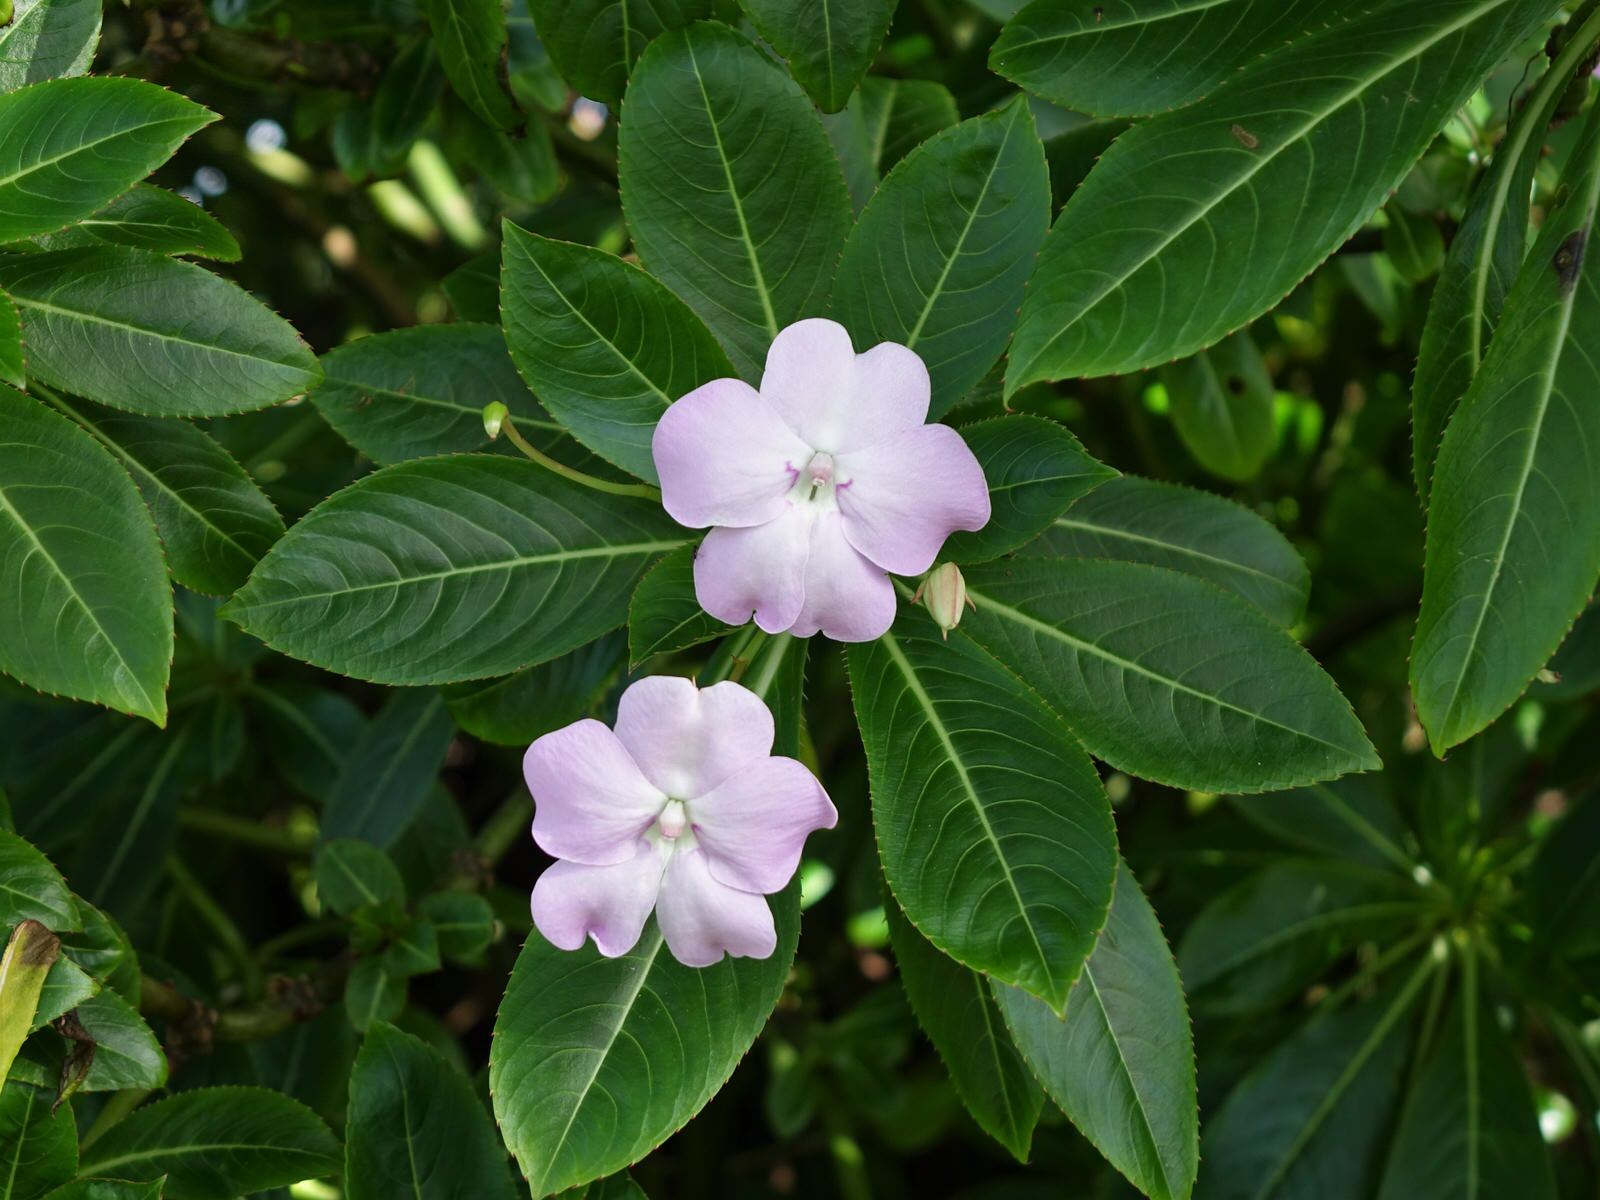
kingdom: Plantae
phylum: Tracheophyta
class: Magnoliopsida
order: Ericales
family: Balsaminaceae
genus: Impatiens
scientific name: Impatiens sodenii
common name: Oliver's touch-me-not
